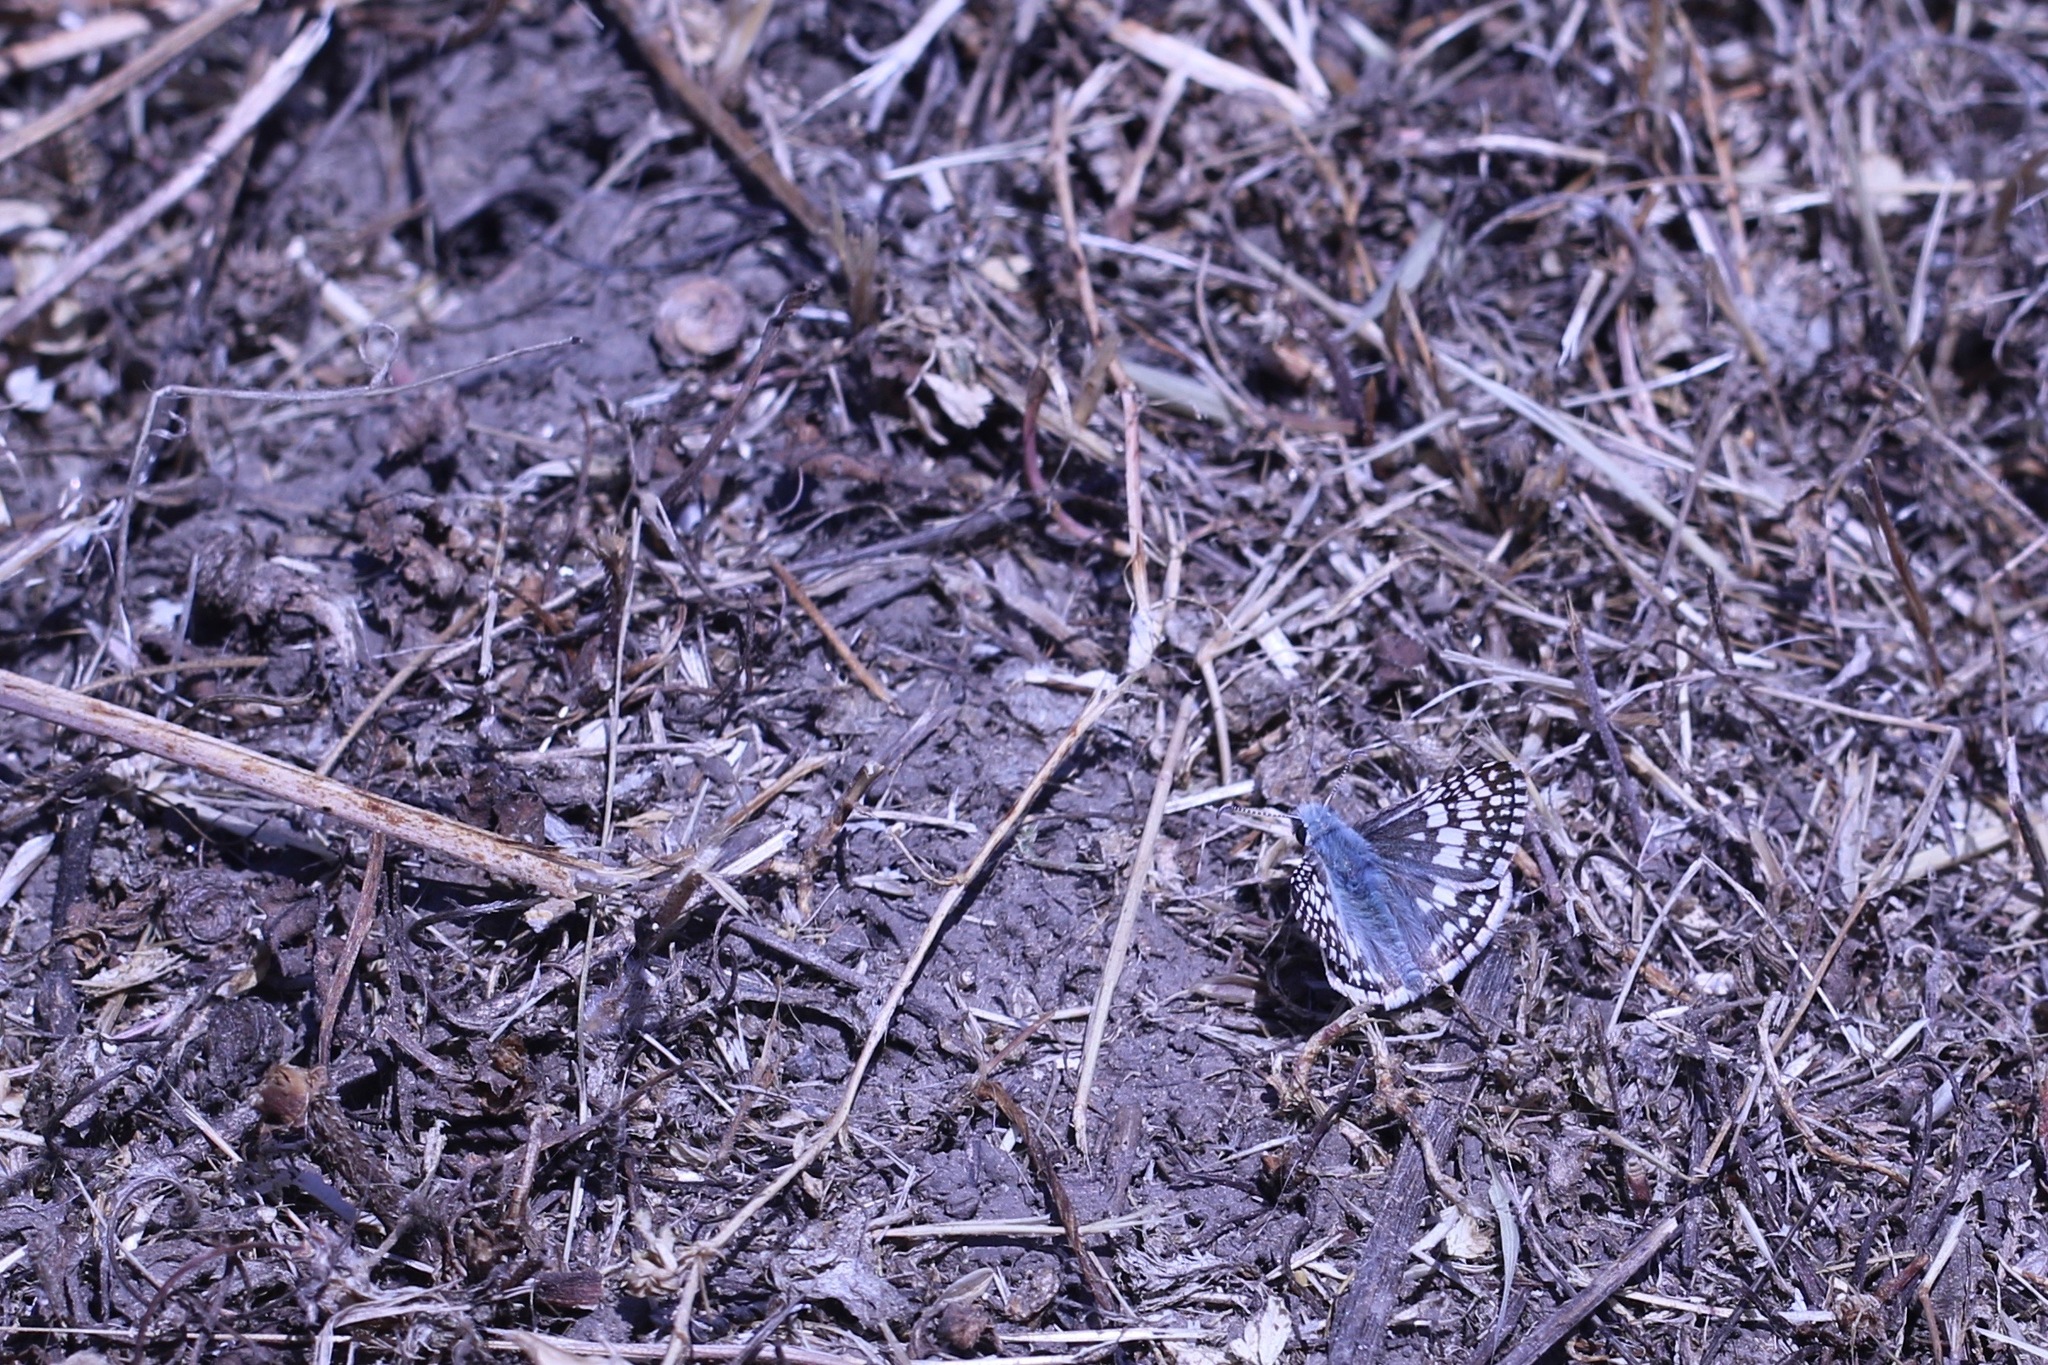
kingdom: Animalia
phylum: Arthropoda
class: Insecta
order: Lepidoptera
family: Hesperiidae
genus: Burnsius
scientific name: Burnsius communis
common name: Common checkered-skipper
